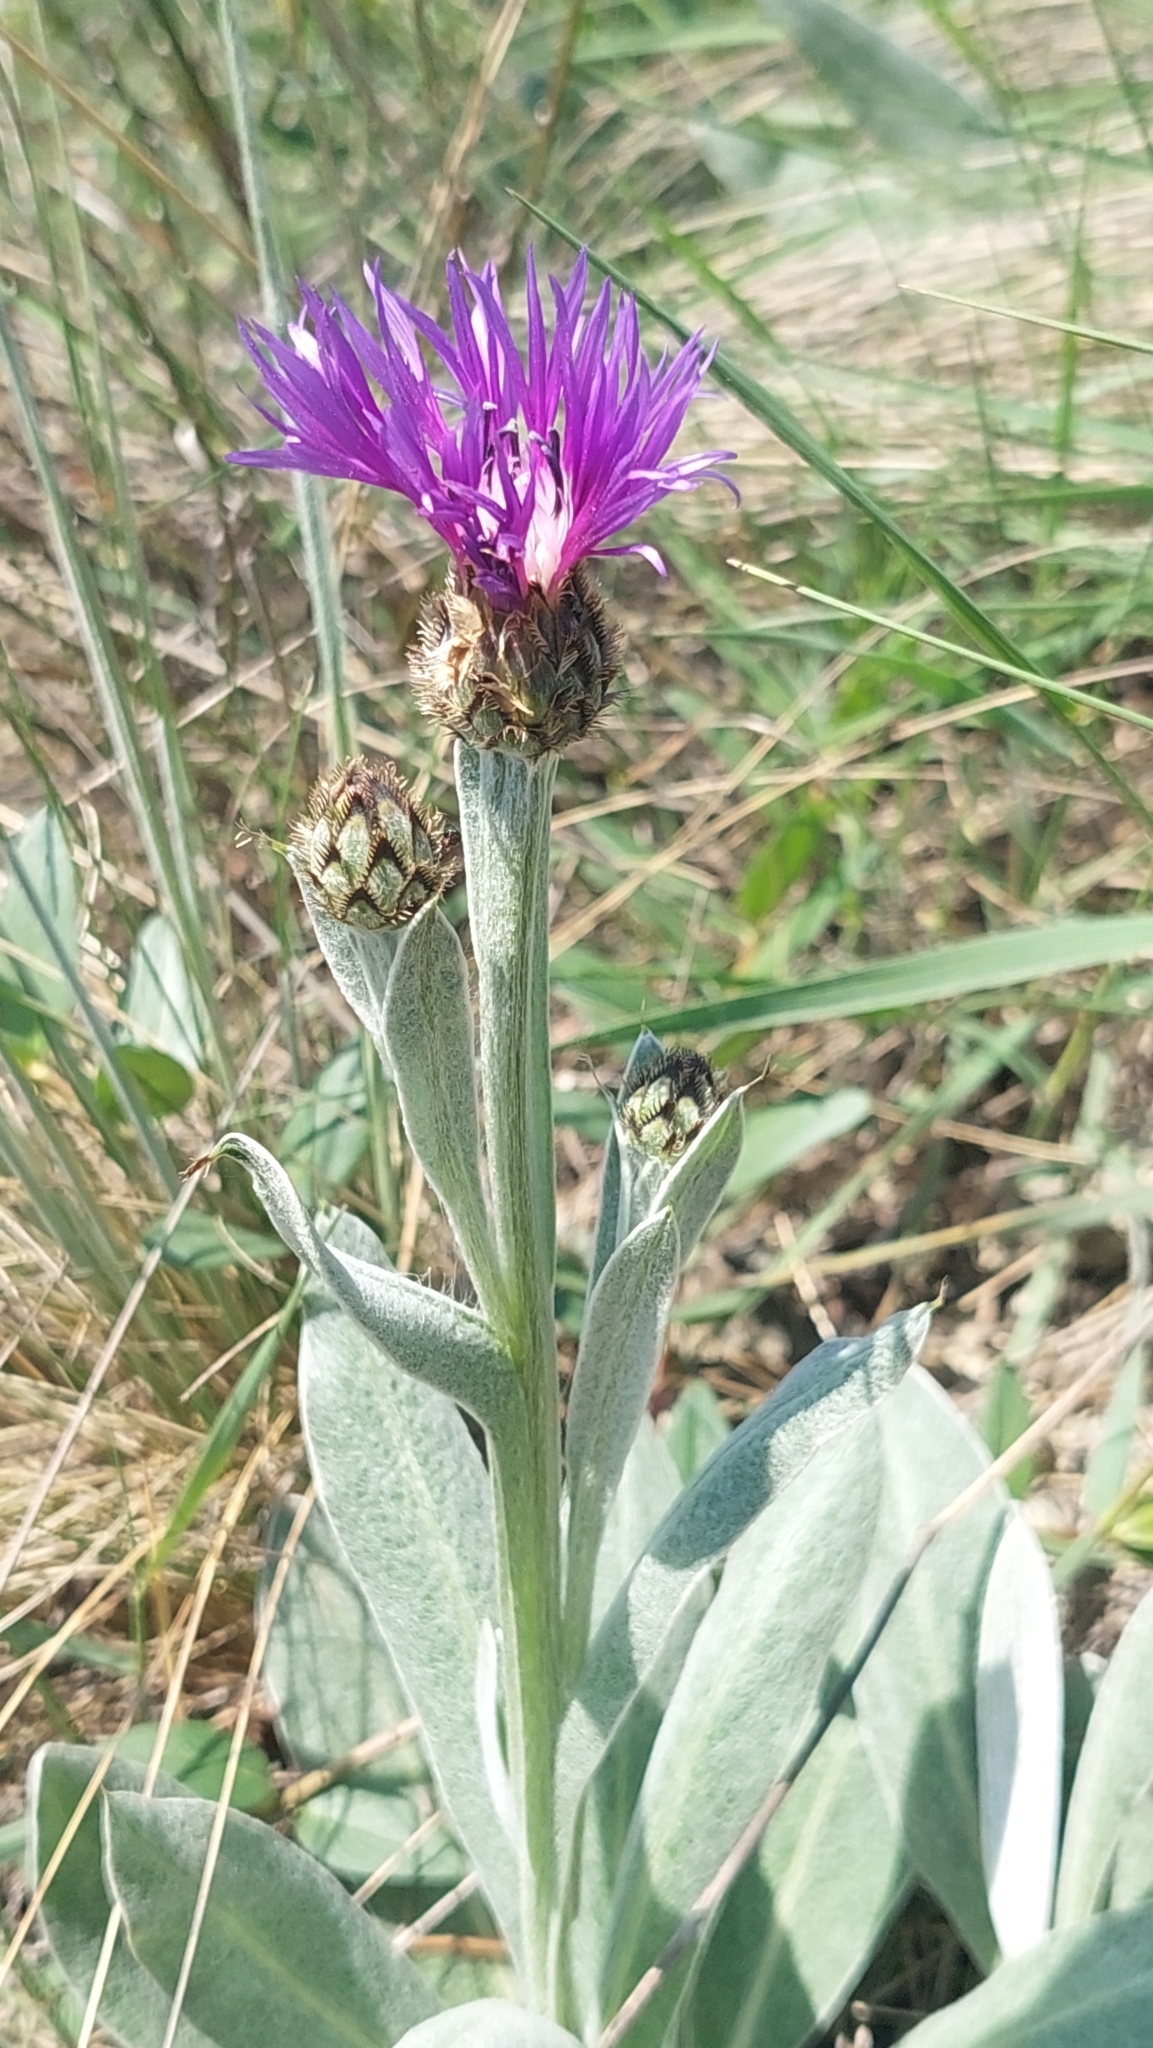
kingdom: Plantae
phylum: Tracheophyta
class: Magnoliopsida
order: Asterales
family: Asteraceae
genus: Centaurea
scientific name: Centaurea tanaitica
